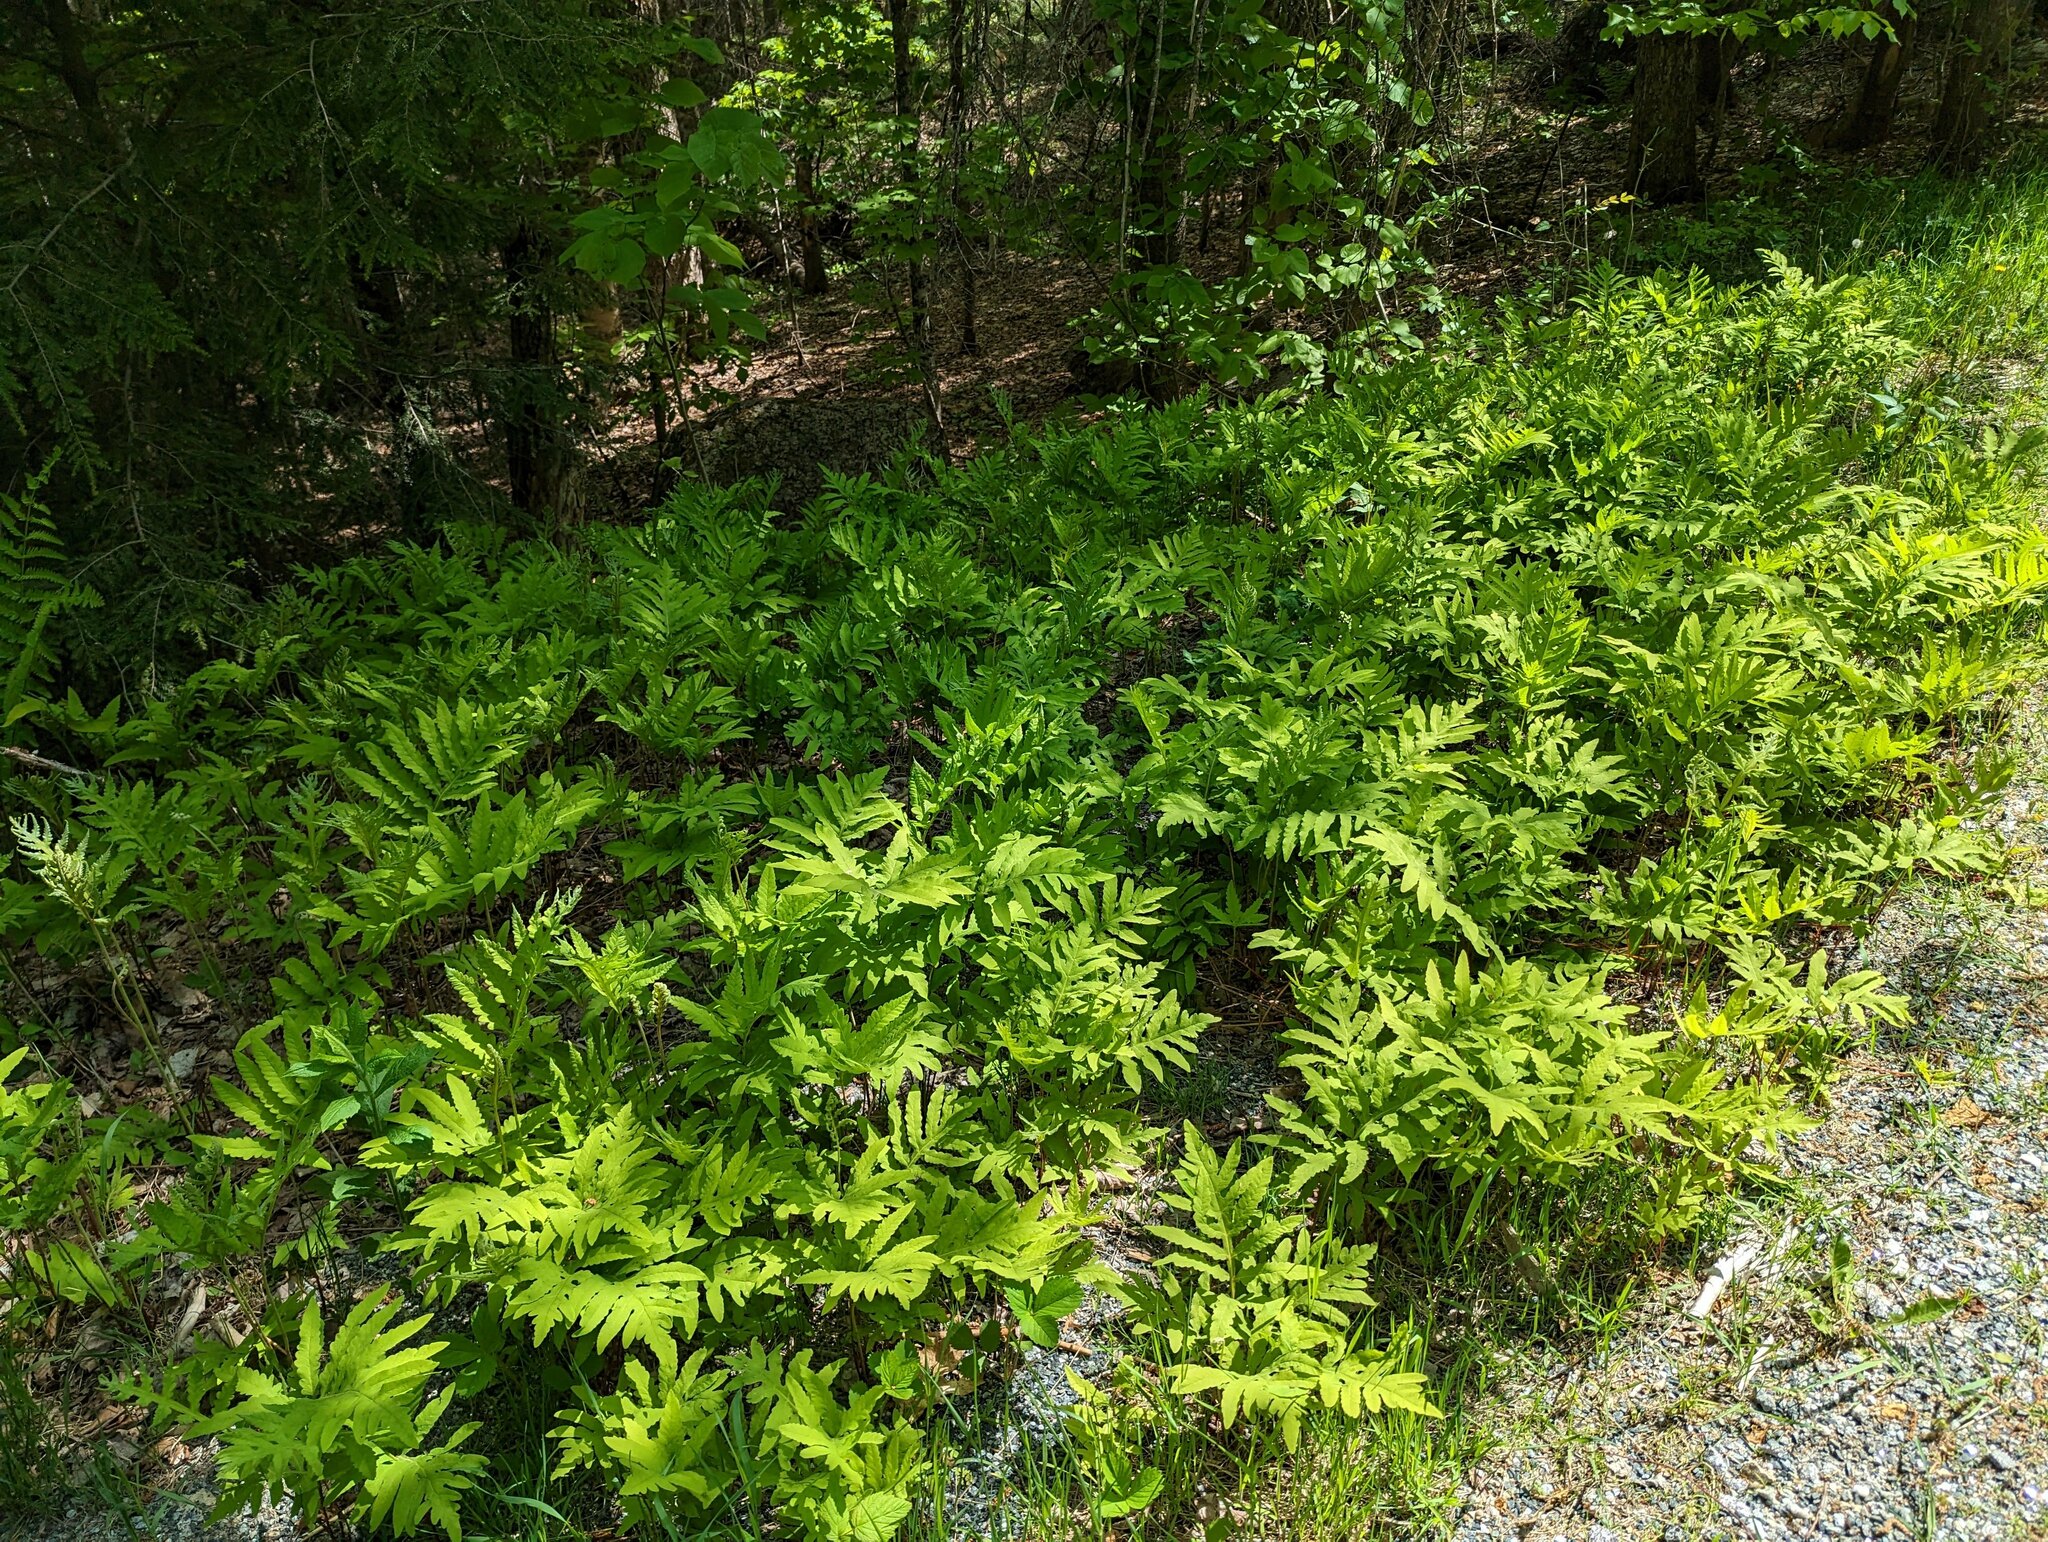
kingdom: Plantae
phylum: Tracheophyta
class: Polypodiopsida
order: Polypodiales
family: Onocleaceae
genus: Onoclea
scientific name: Onoclea sensibilis
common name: Sensitive fern
